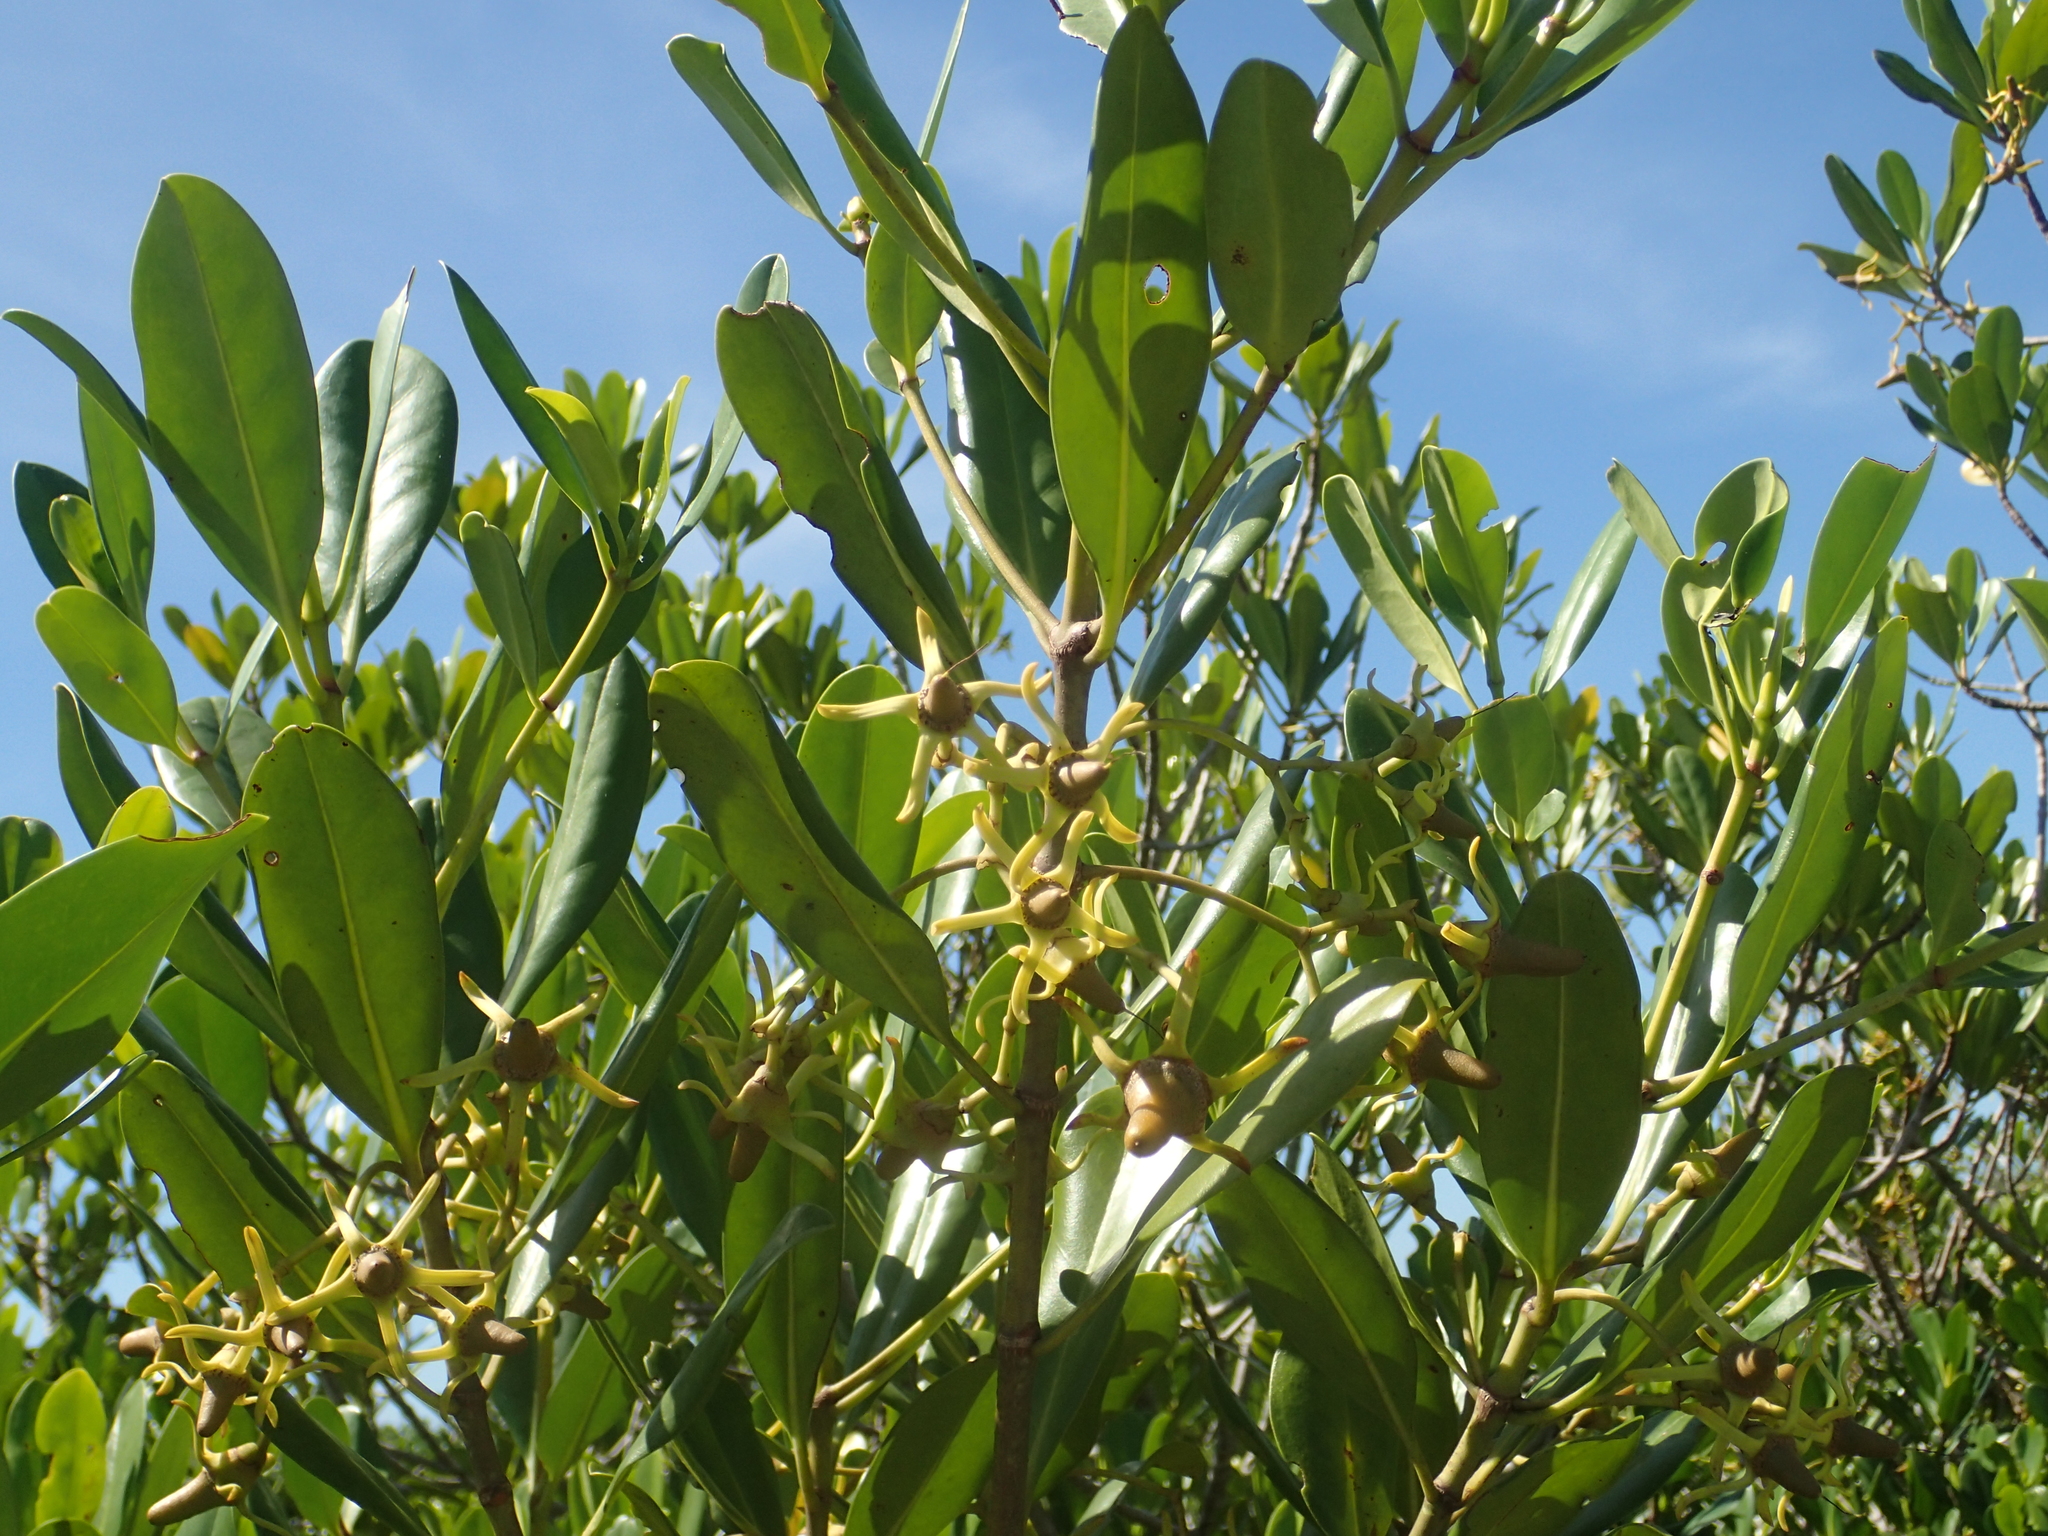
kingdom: Plantae
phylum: Tracheophyta
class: Magnoliopsida
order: Malpighiales
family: Rhizophoraceae
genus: Kandelia
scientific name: Kandelia obovata
